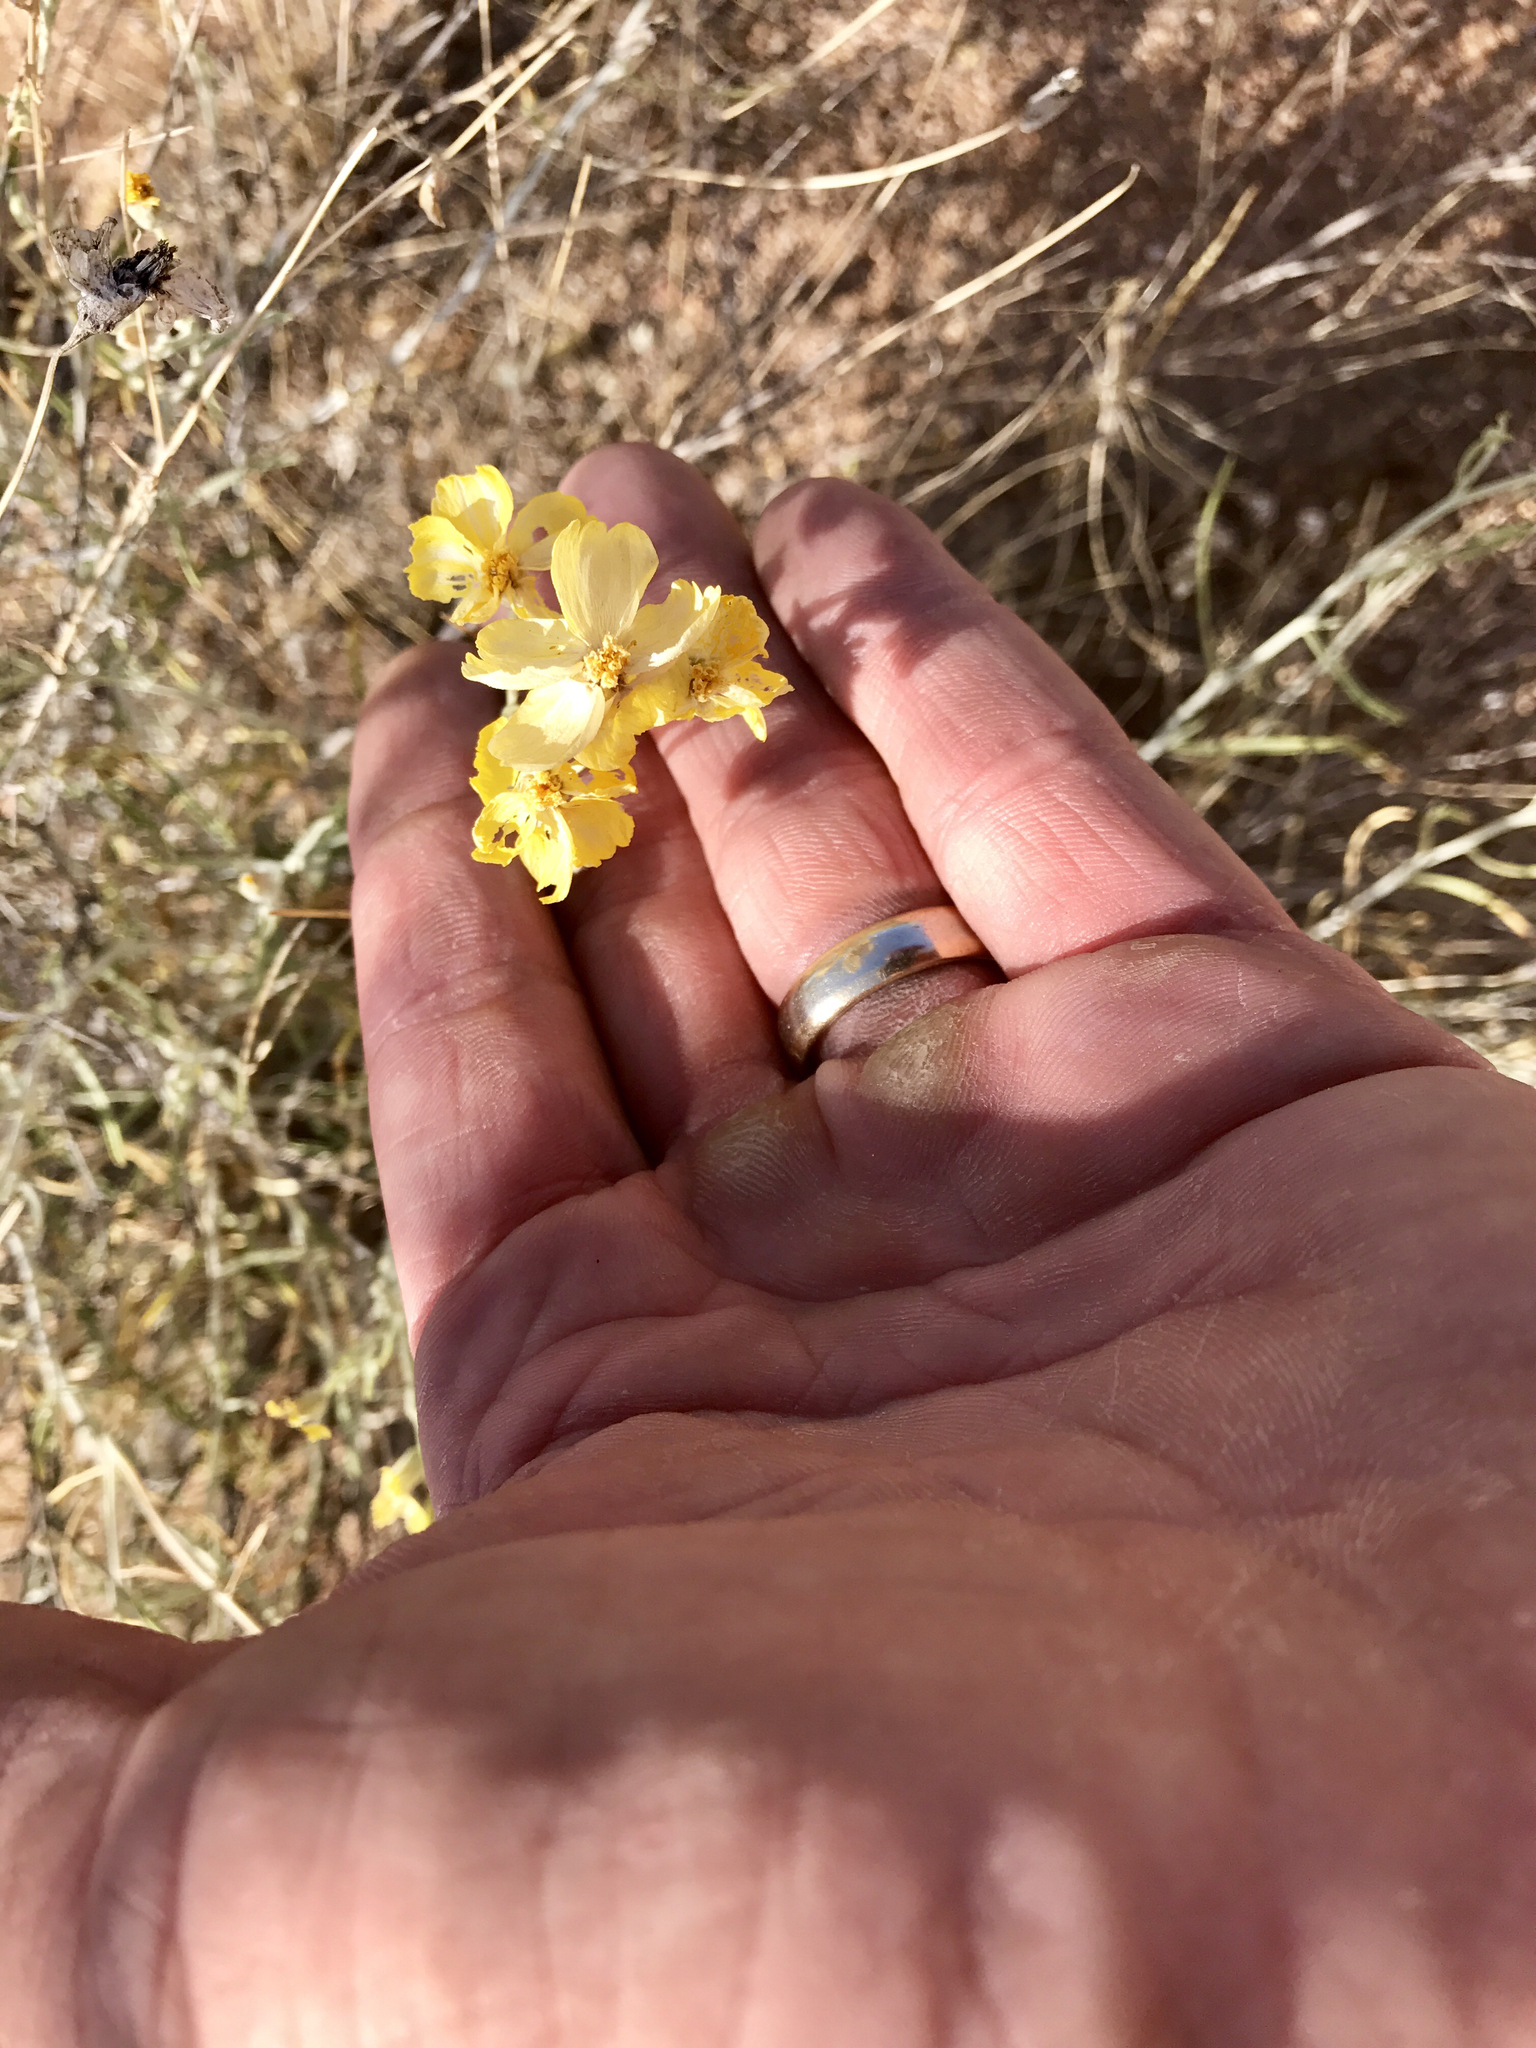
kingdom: Plantae
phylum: Tracheophyta
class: Magnoliopsida
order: Asterales
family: Asteraceae
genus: Psilostrophe
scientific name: Psilostrophe cooperi
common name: White-stem paper-flower
